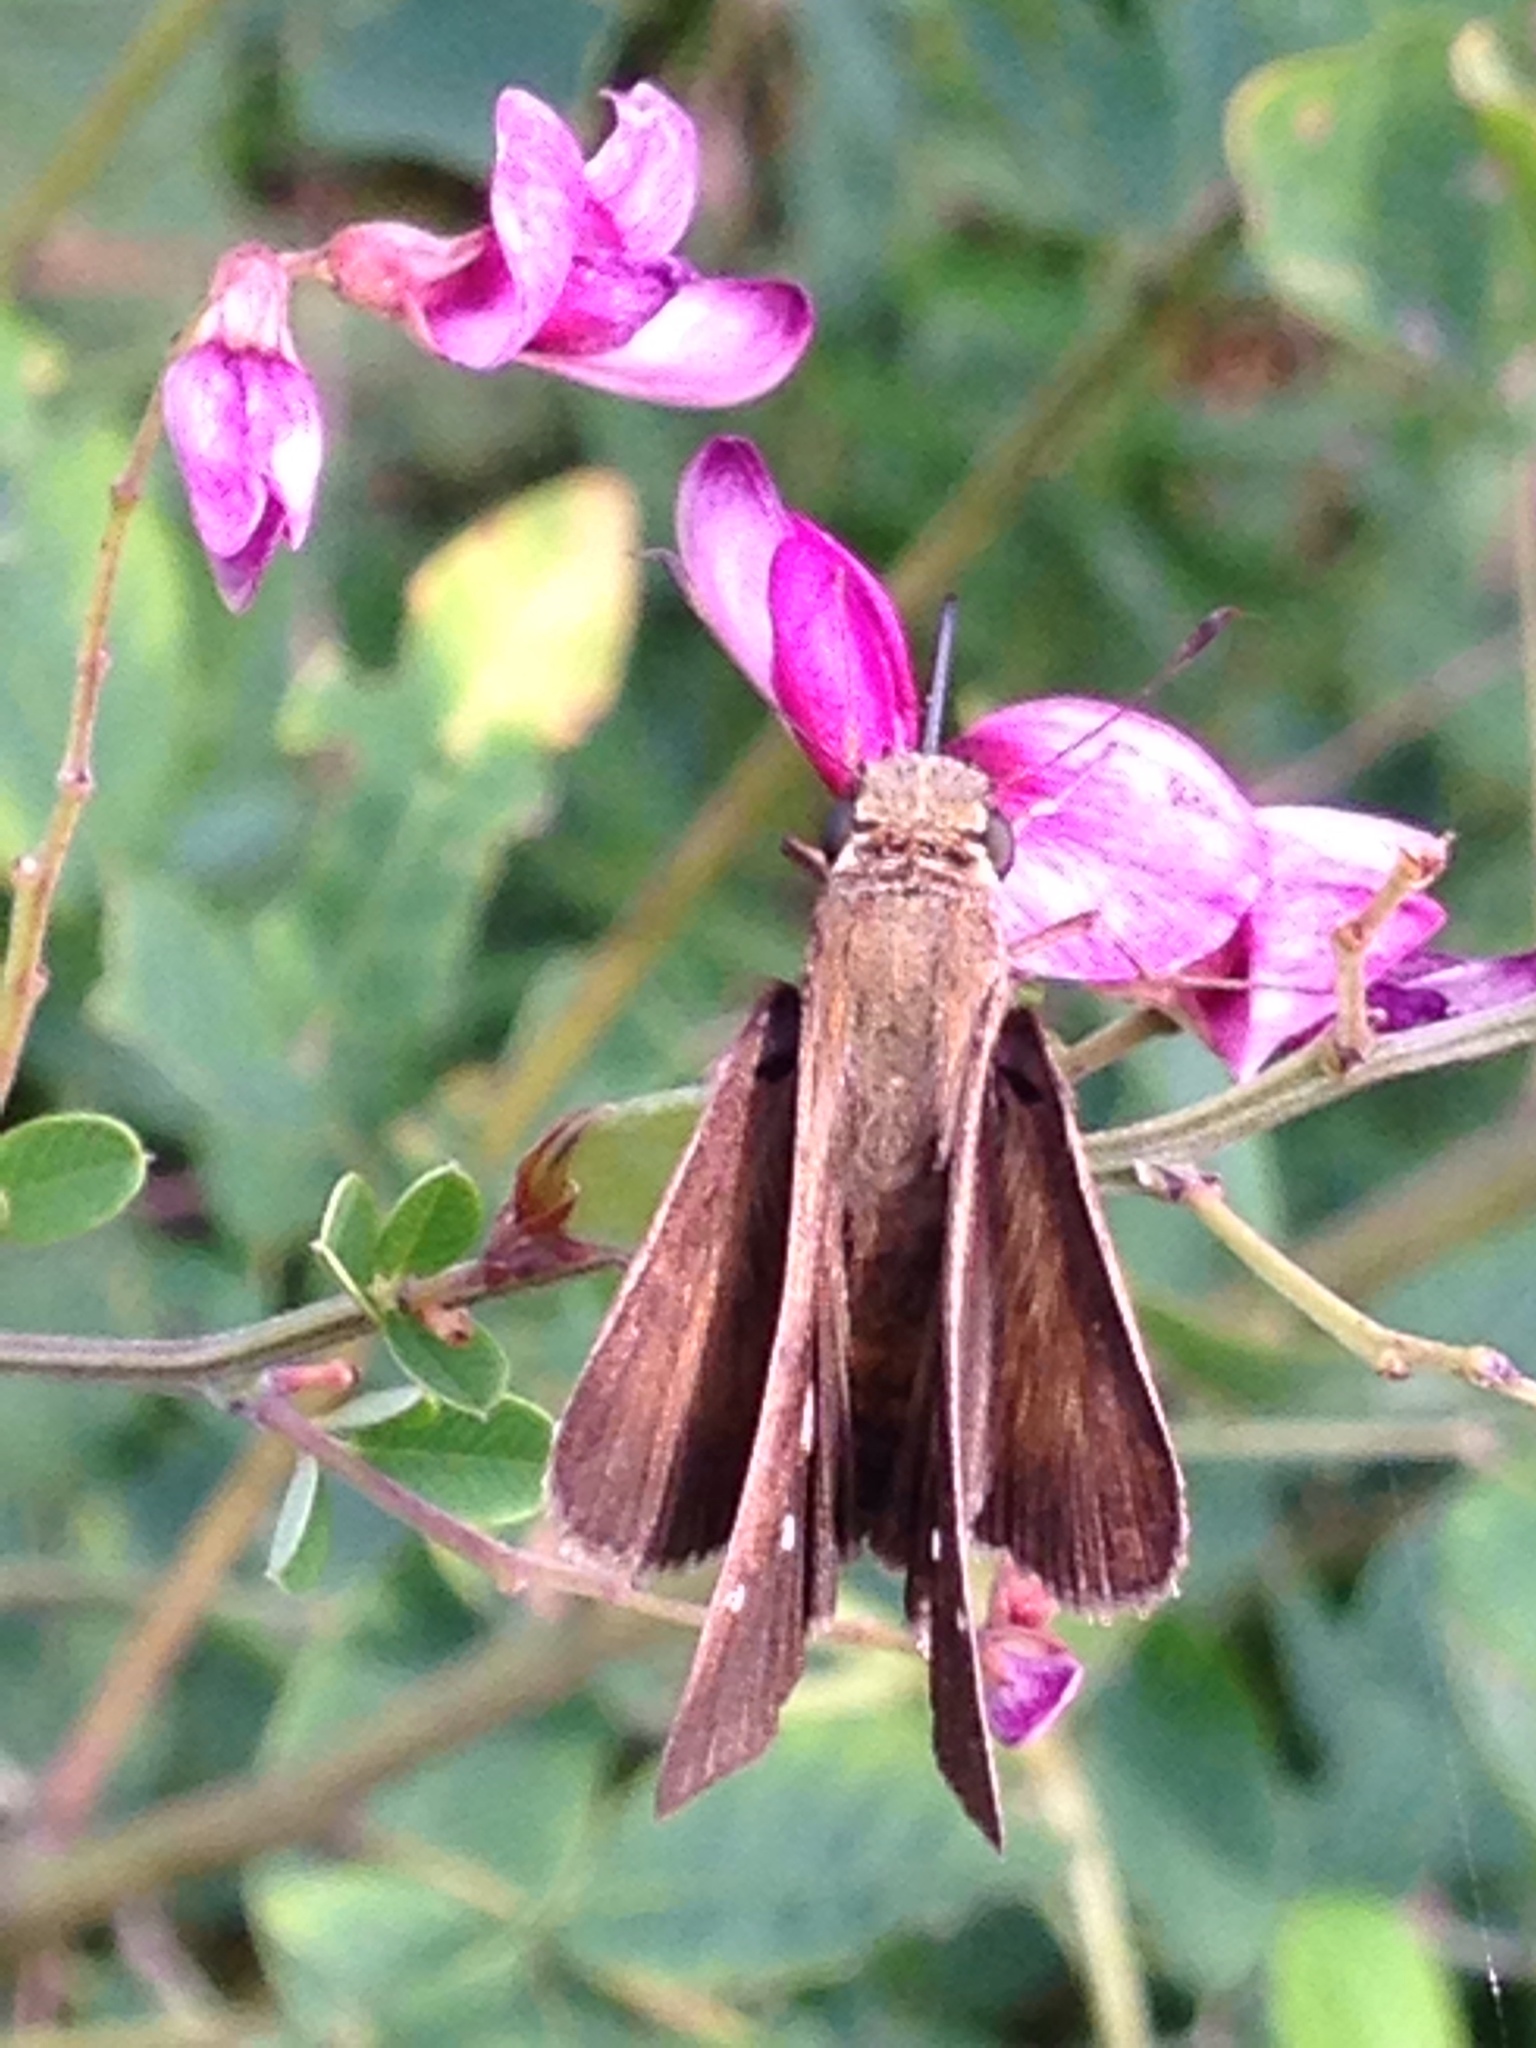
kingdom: Animalia
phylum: Arthropoda
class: Insecta
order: Lepidoptera
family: Hesperiidae
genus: Panoquina
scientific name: Panoquina ocola
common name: Ocola skipper
